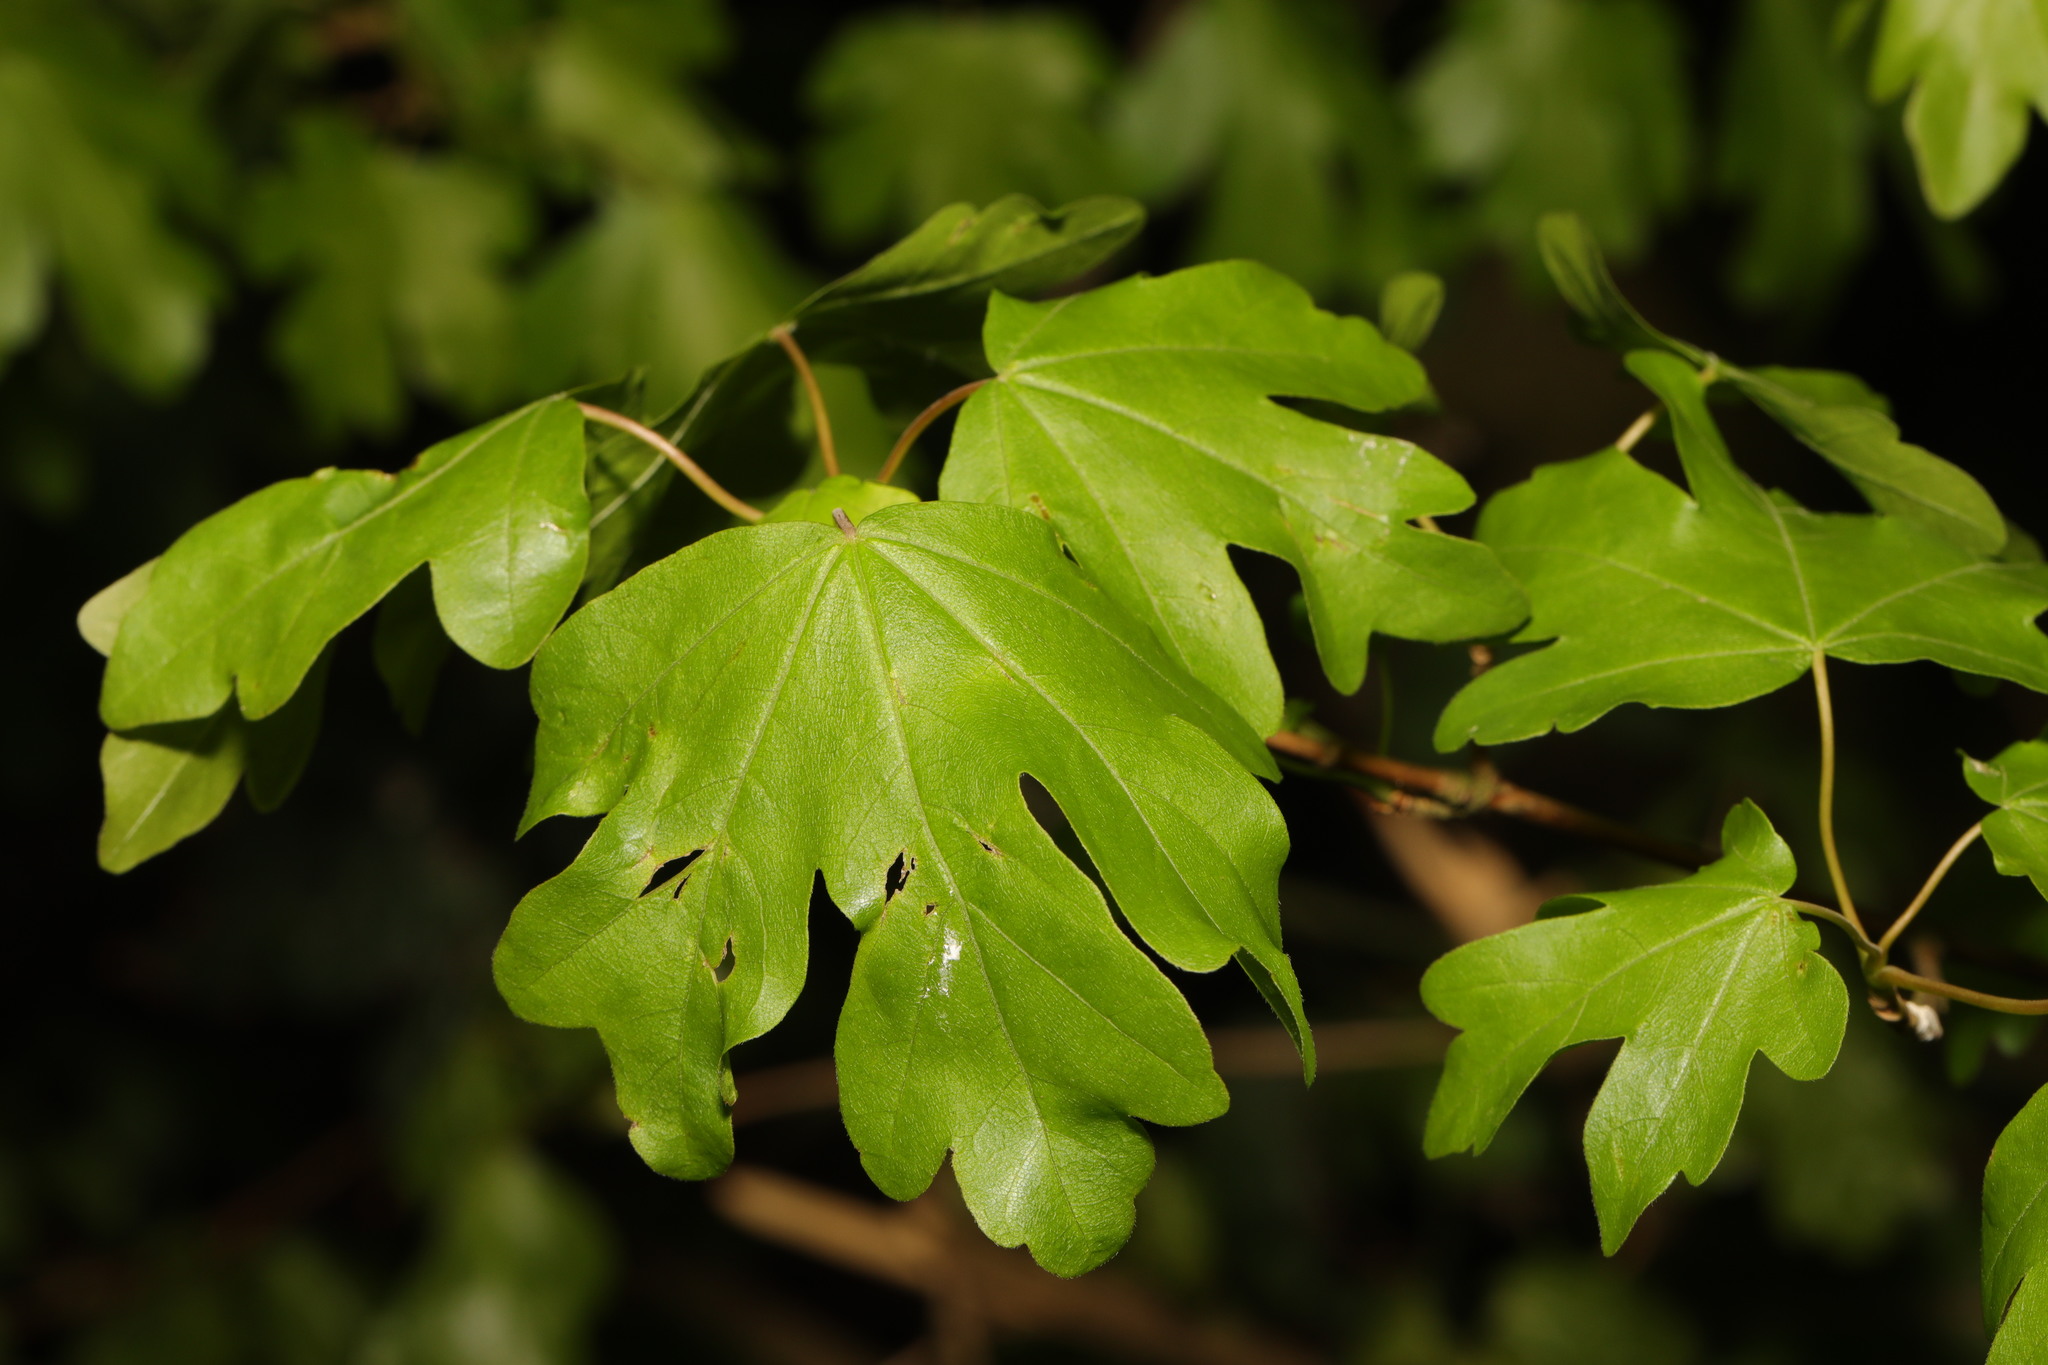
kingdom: Plantae
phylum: Tracheophyta
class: Magnoliopsida
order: Sapindales
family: Sapindaceae
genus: Acer
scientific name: Acer campestre
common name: Field maple
